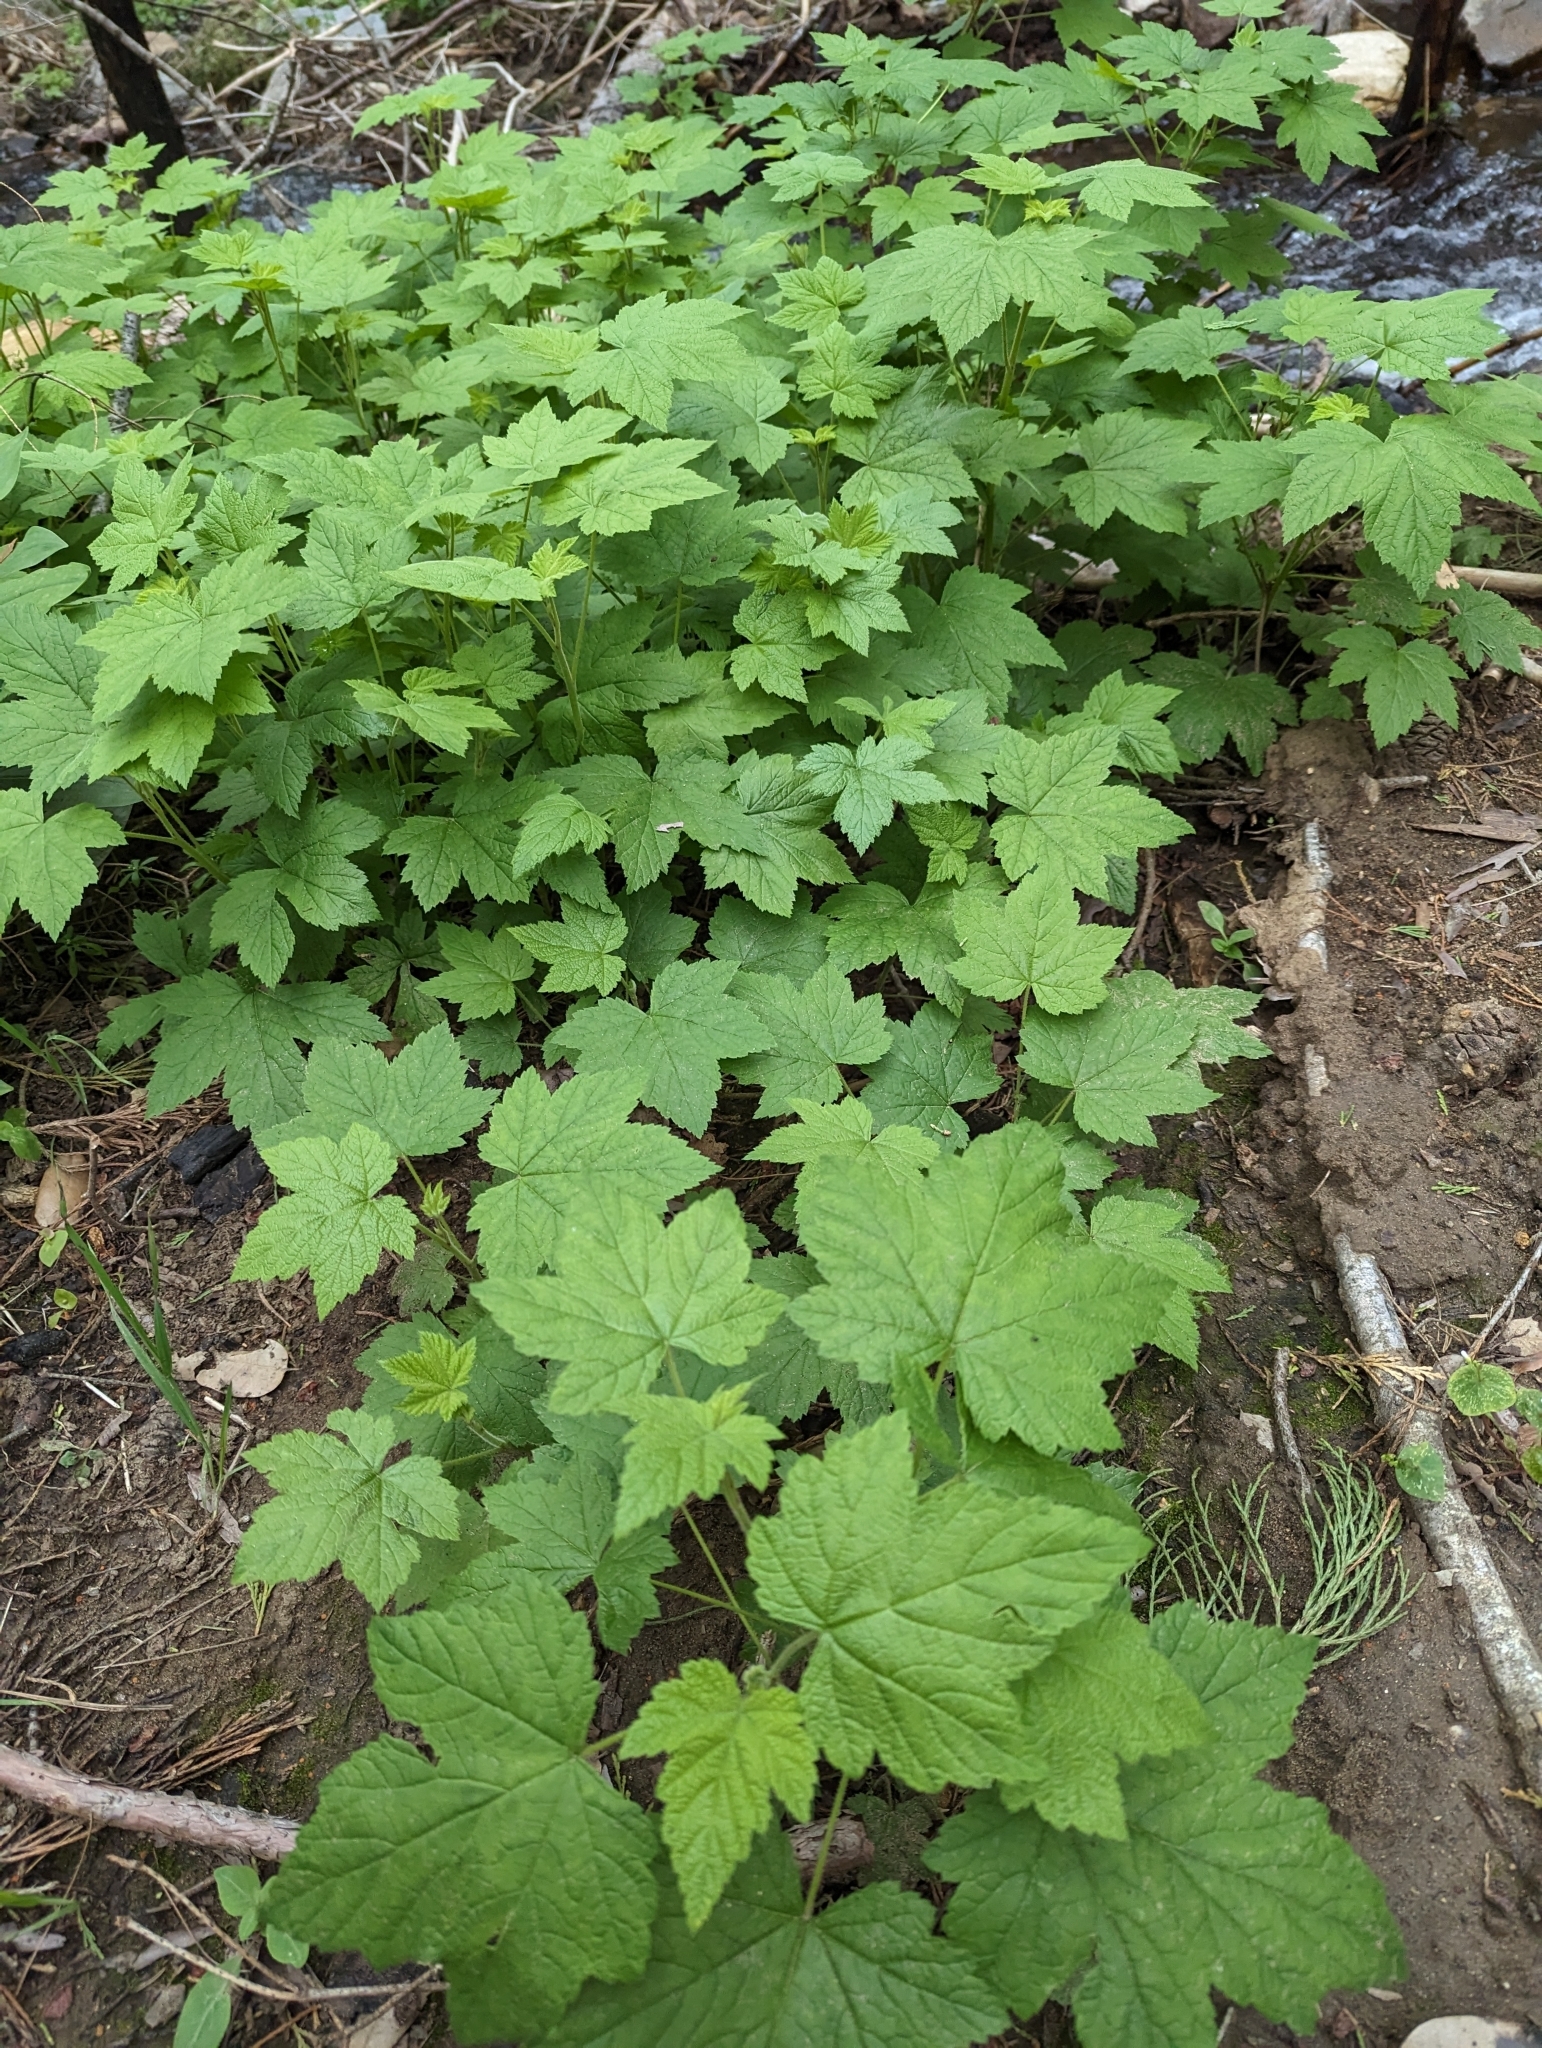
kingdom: Plantae
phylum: Tracheophyta
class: Magnoliopsida
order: Rosales
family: Rosaceae
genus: Rubus
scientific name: Rubus parviflorus
